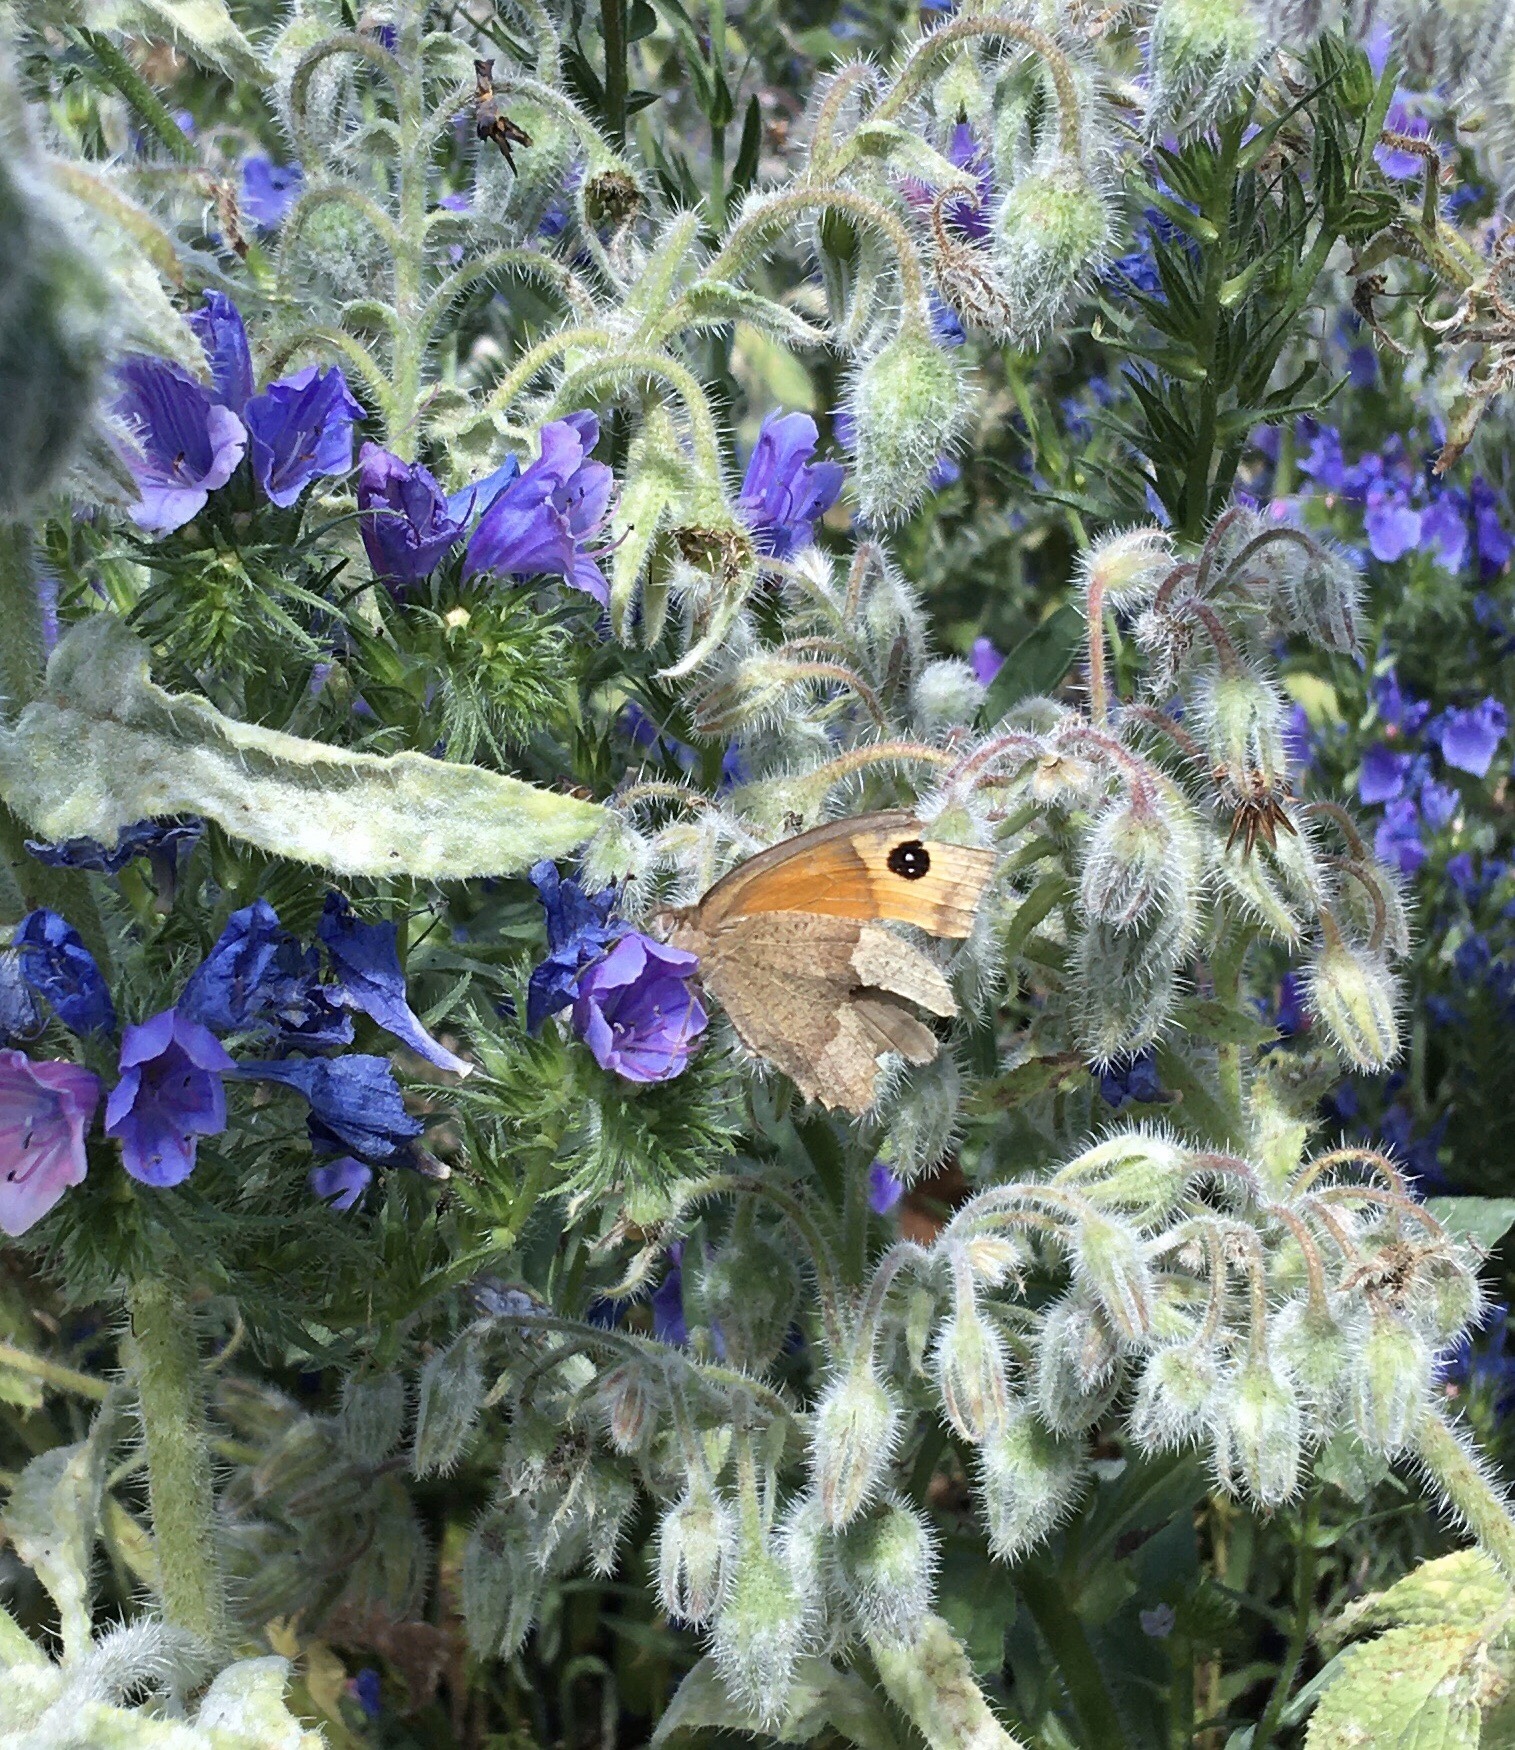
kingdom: Animalia
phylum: Arthropoda
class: Insecta
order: Lepidoptera
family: Nymphalidae
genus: Maniola
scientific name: Maniola jurtina
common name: Meadow brown
